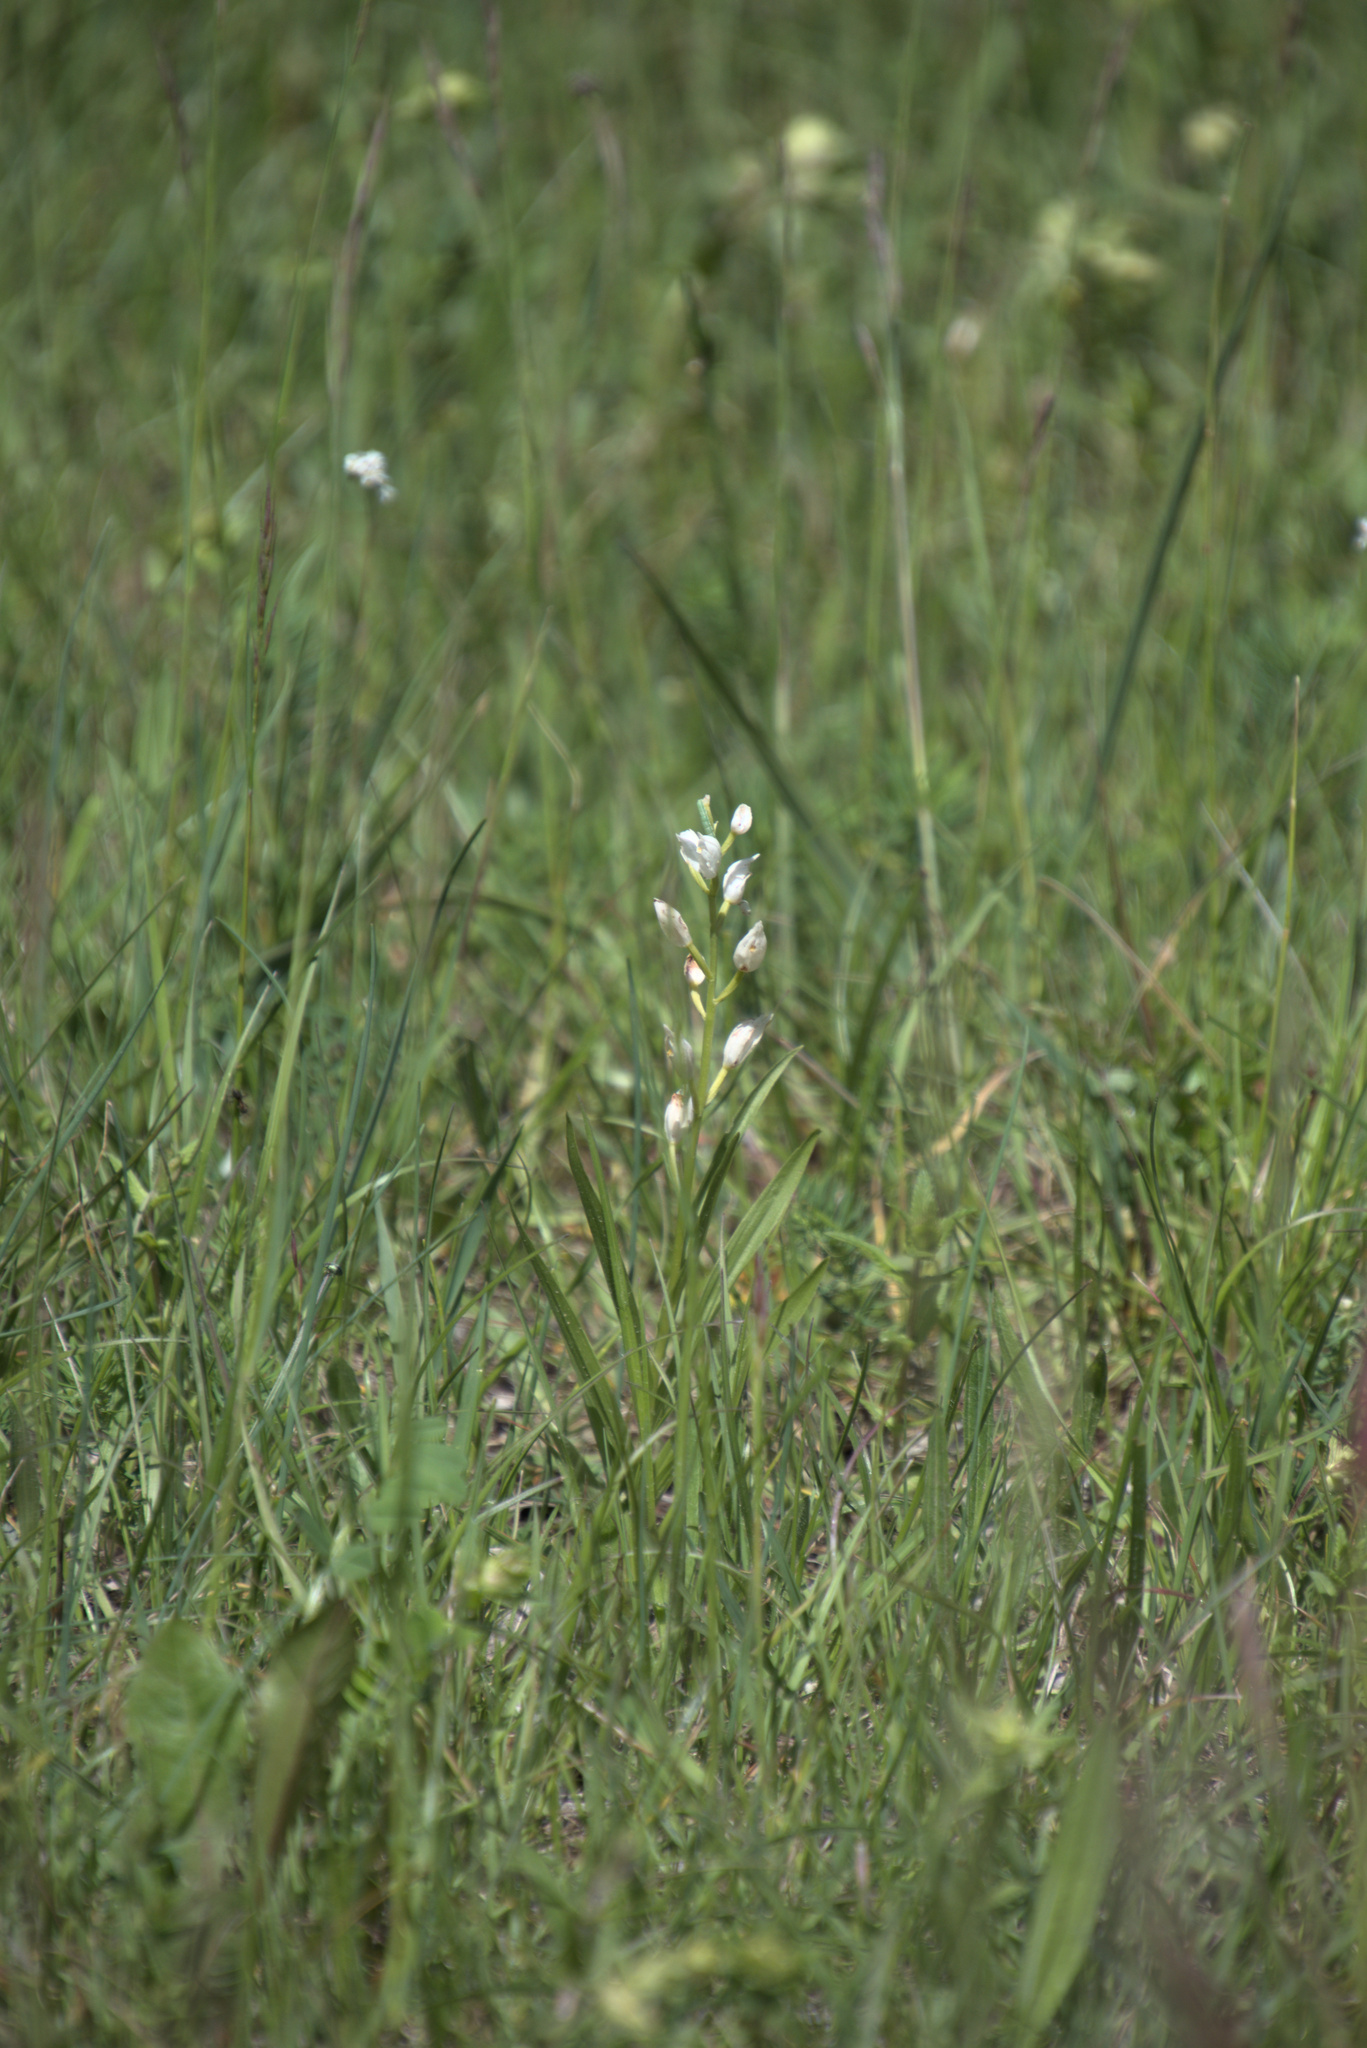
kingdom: Plantae
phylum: Tracheophyta
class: Liliopsida
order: Asparagales
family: Orchidaceae
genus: Cephalanthera
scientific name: Cephalanthera longifolia
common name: Narrow-leaved helleborine
